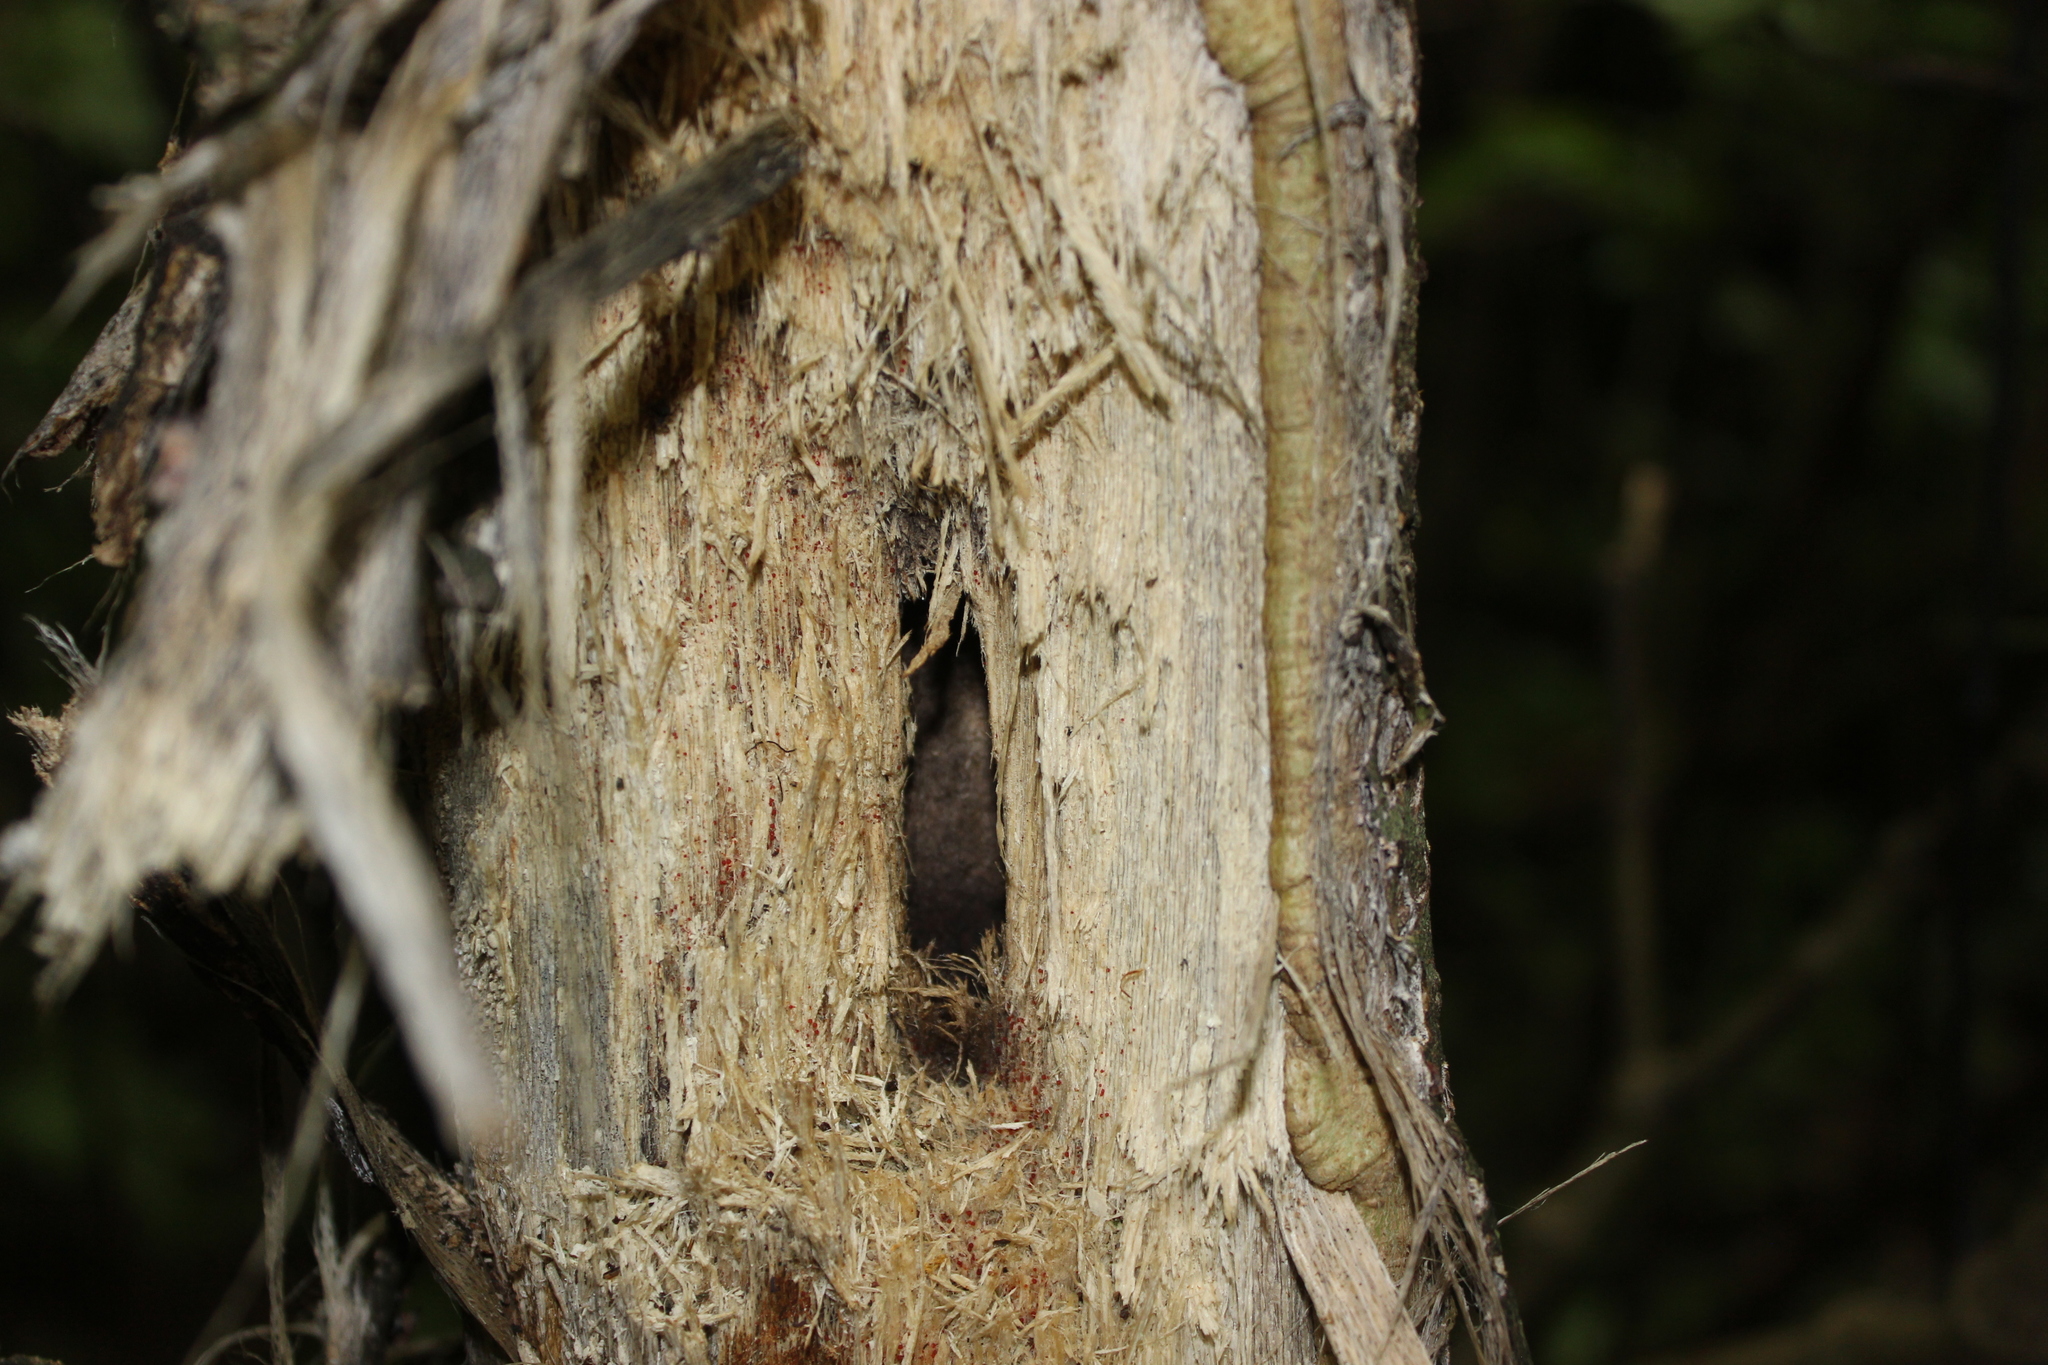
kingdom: Plantae
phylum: Tracheophyta
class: Magnoliopsida
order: Malvales
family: Malvaceae
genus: Hoheria
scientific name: Hoheria populnea
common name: Lacebark
